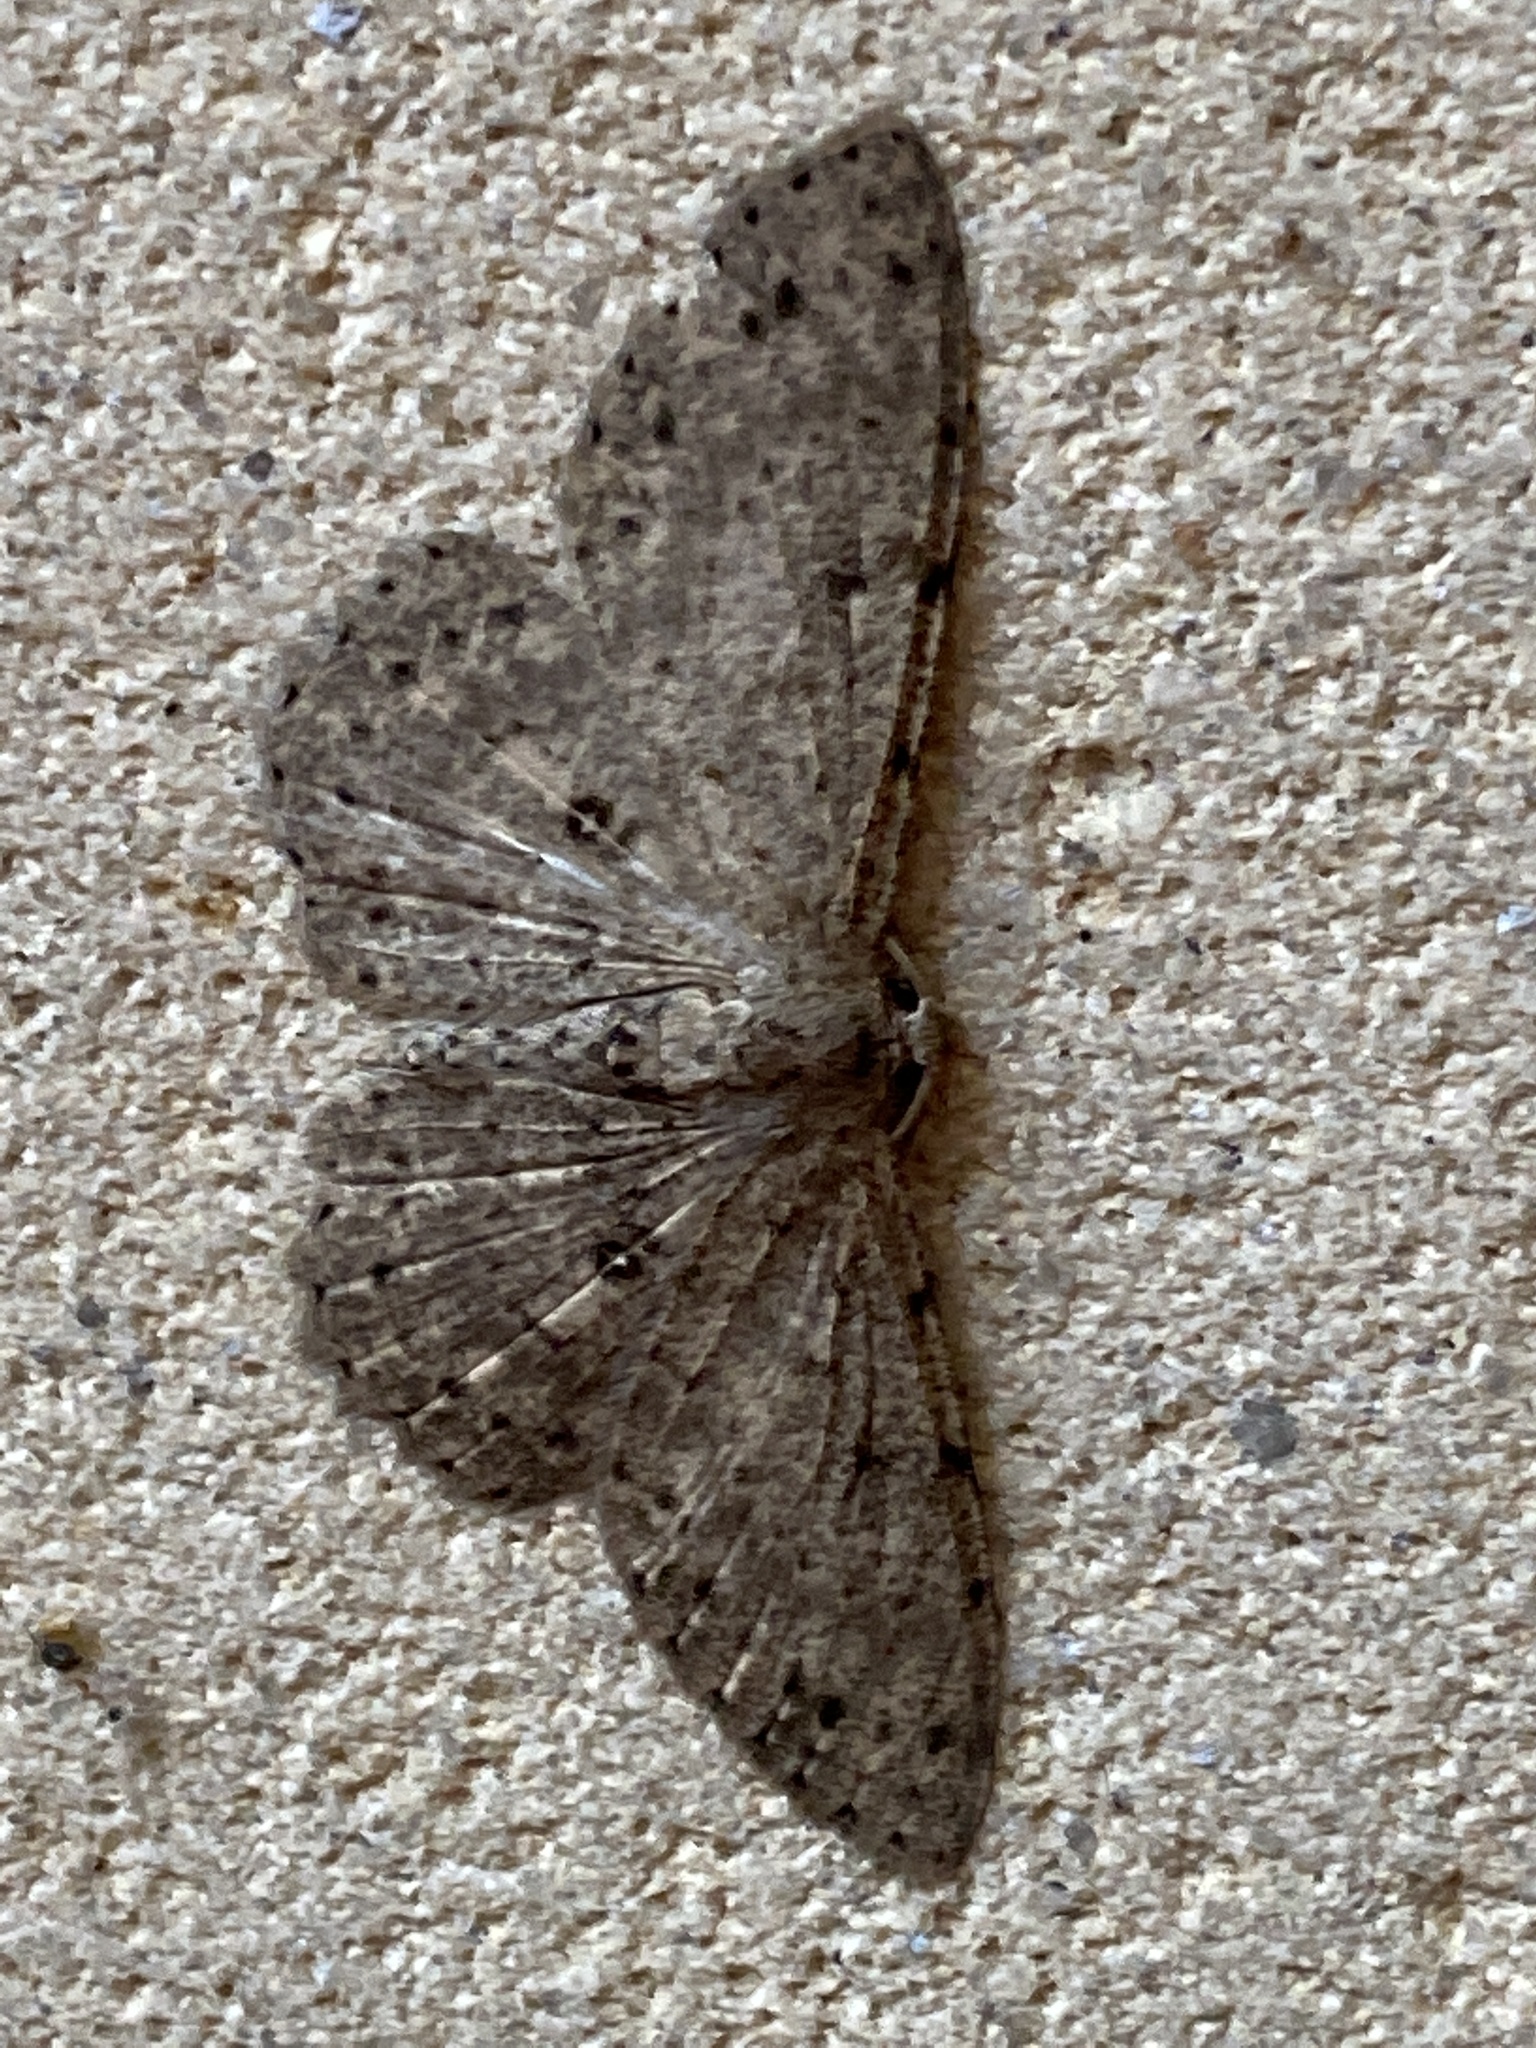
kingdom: Animalia
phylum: Arthropoda
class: Insecta
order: Lepidoptera
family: Geometridae
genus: Catoria
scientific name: Catoria hemiprosopa
